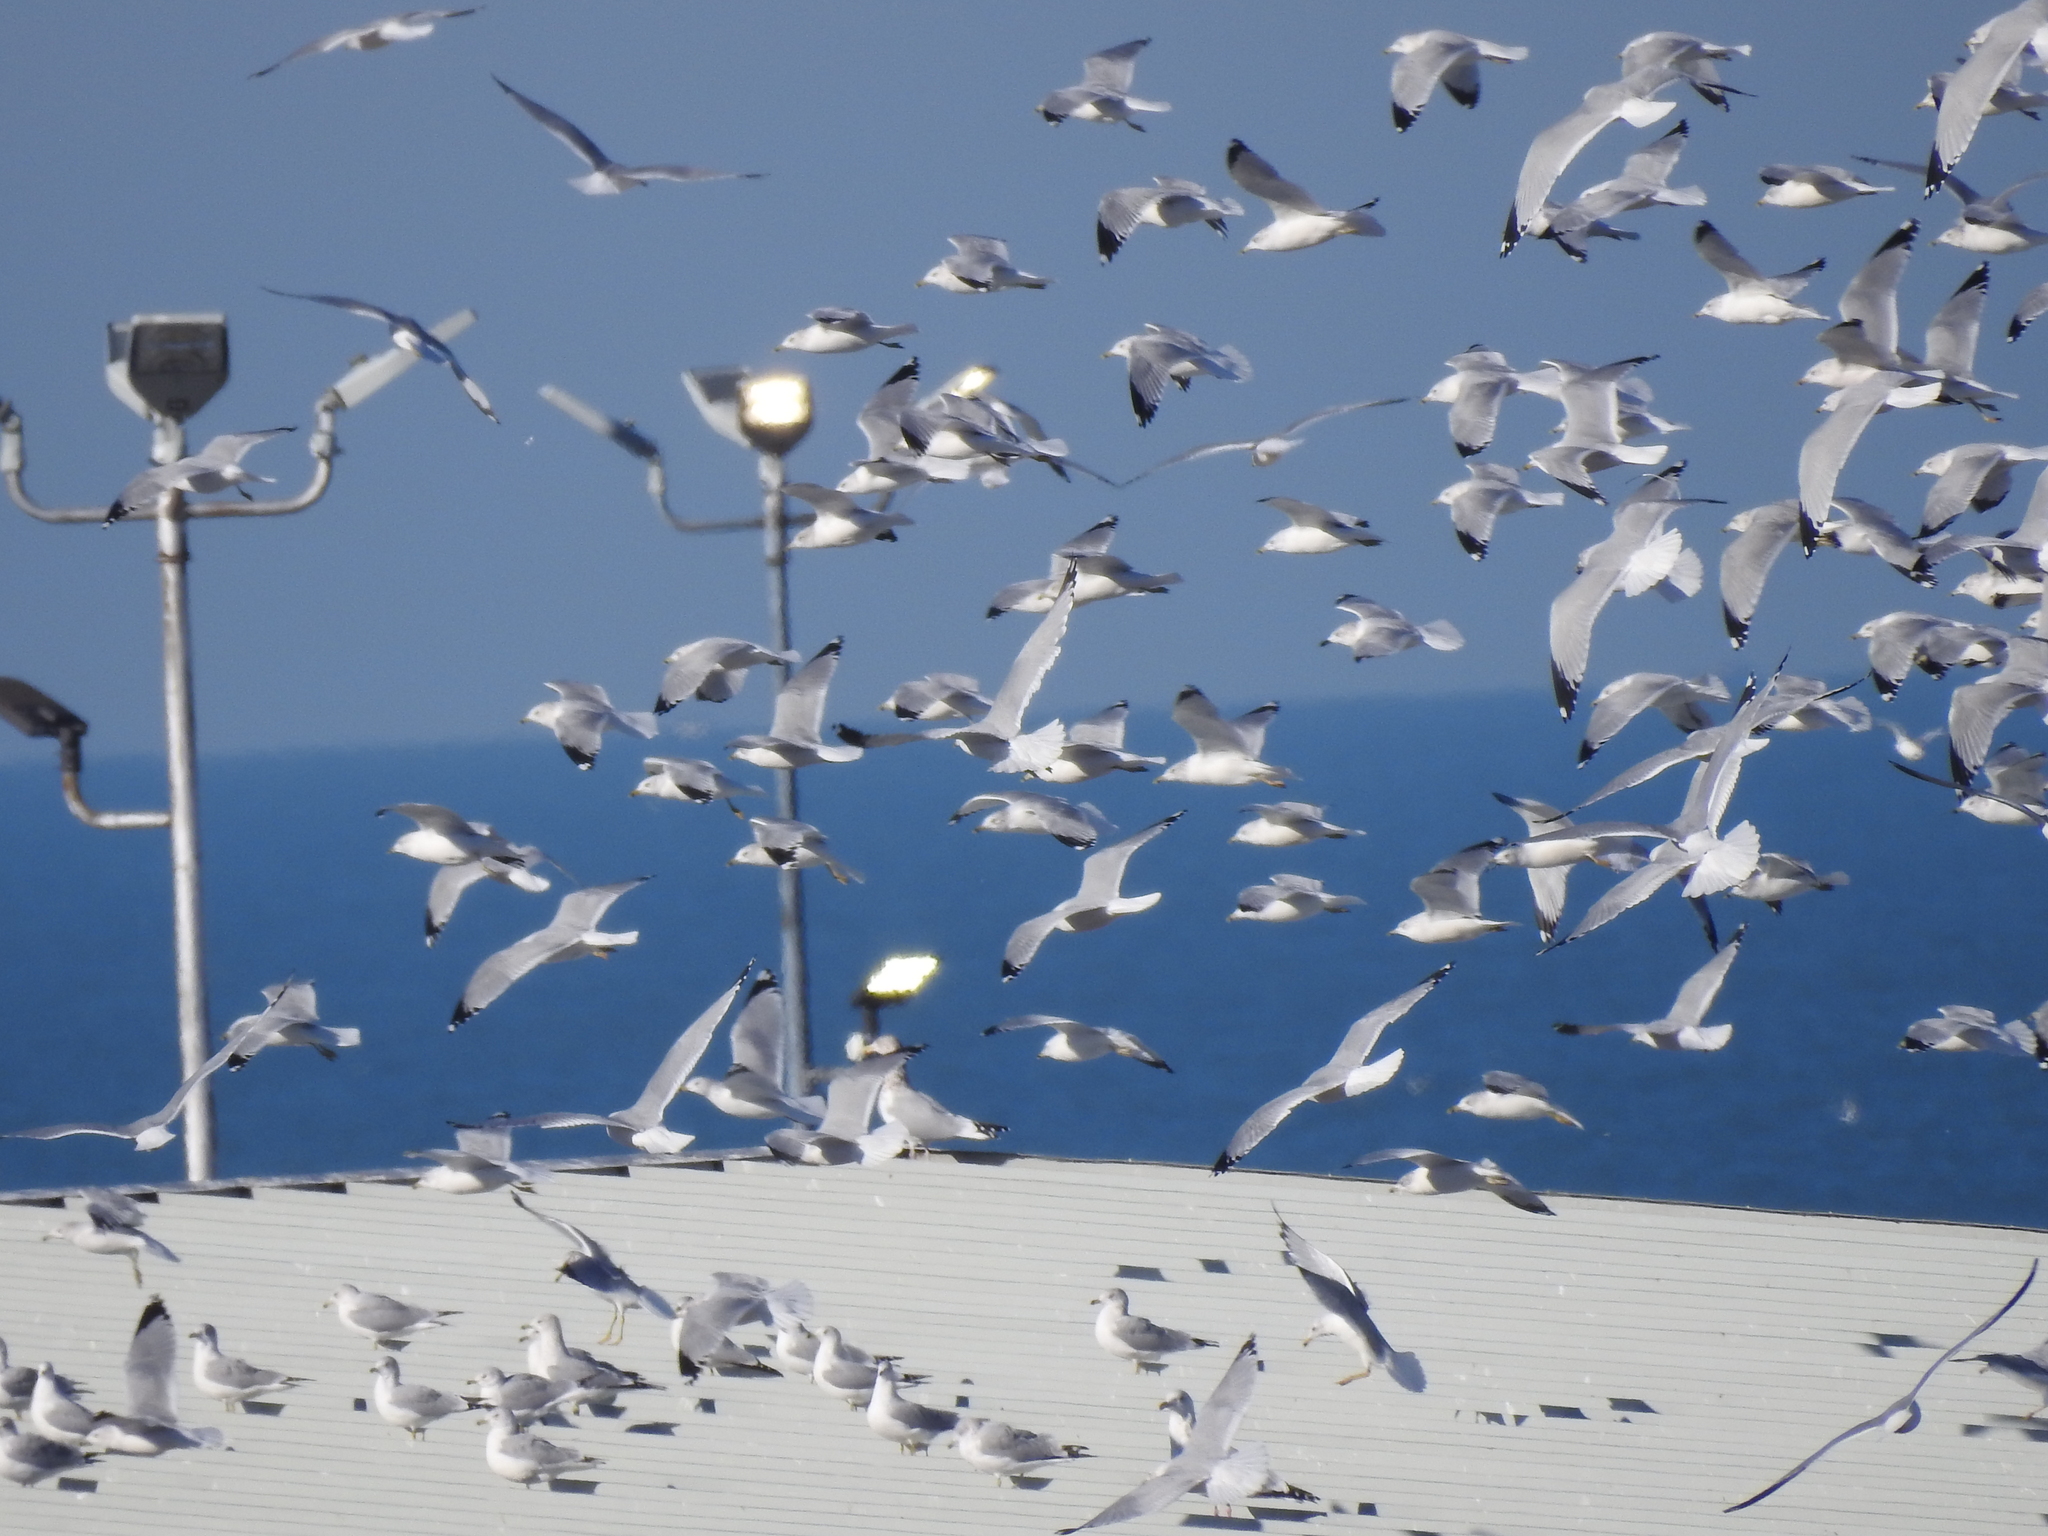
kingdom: Animalia
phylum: Chordata
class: Aves
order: Charadriiformes
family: Laridae
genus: Larus
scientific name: Larus delawarensis
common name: Ring-billed gull
